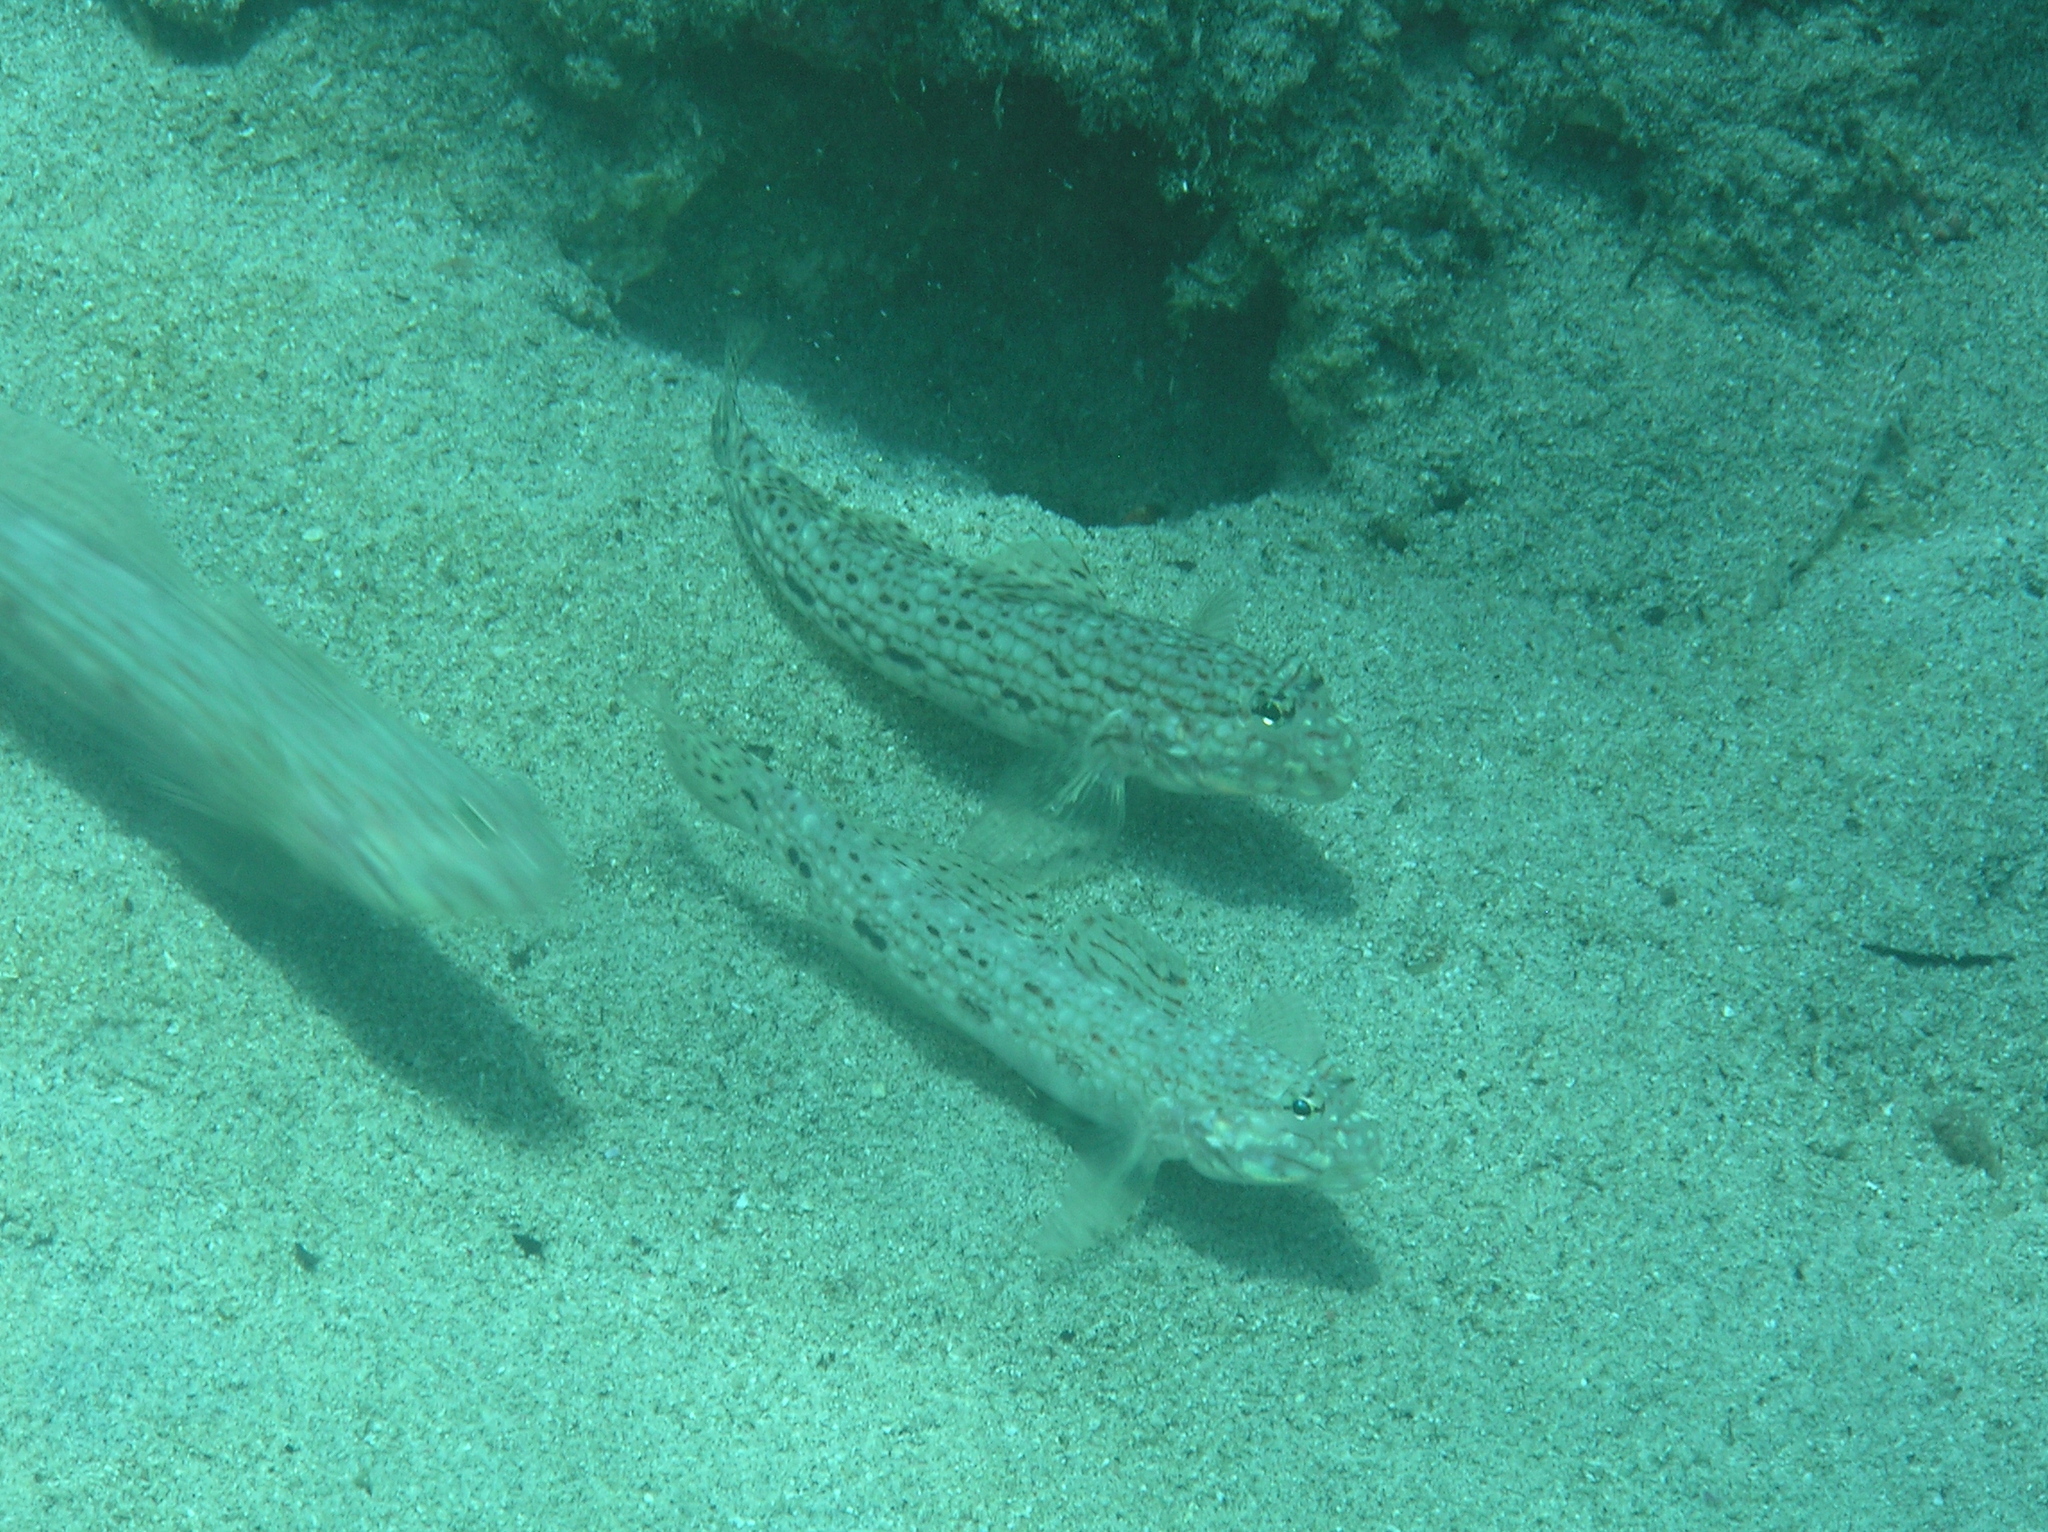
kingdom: Animalia
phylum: Chordata
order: Perciformes
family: Gobiidae
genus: Istigobius
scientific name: Istigobius decoratus
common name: Decorated goby
